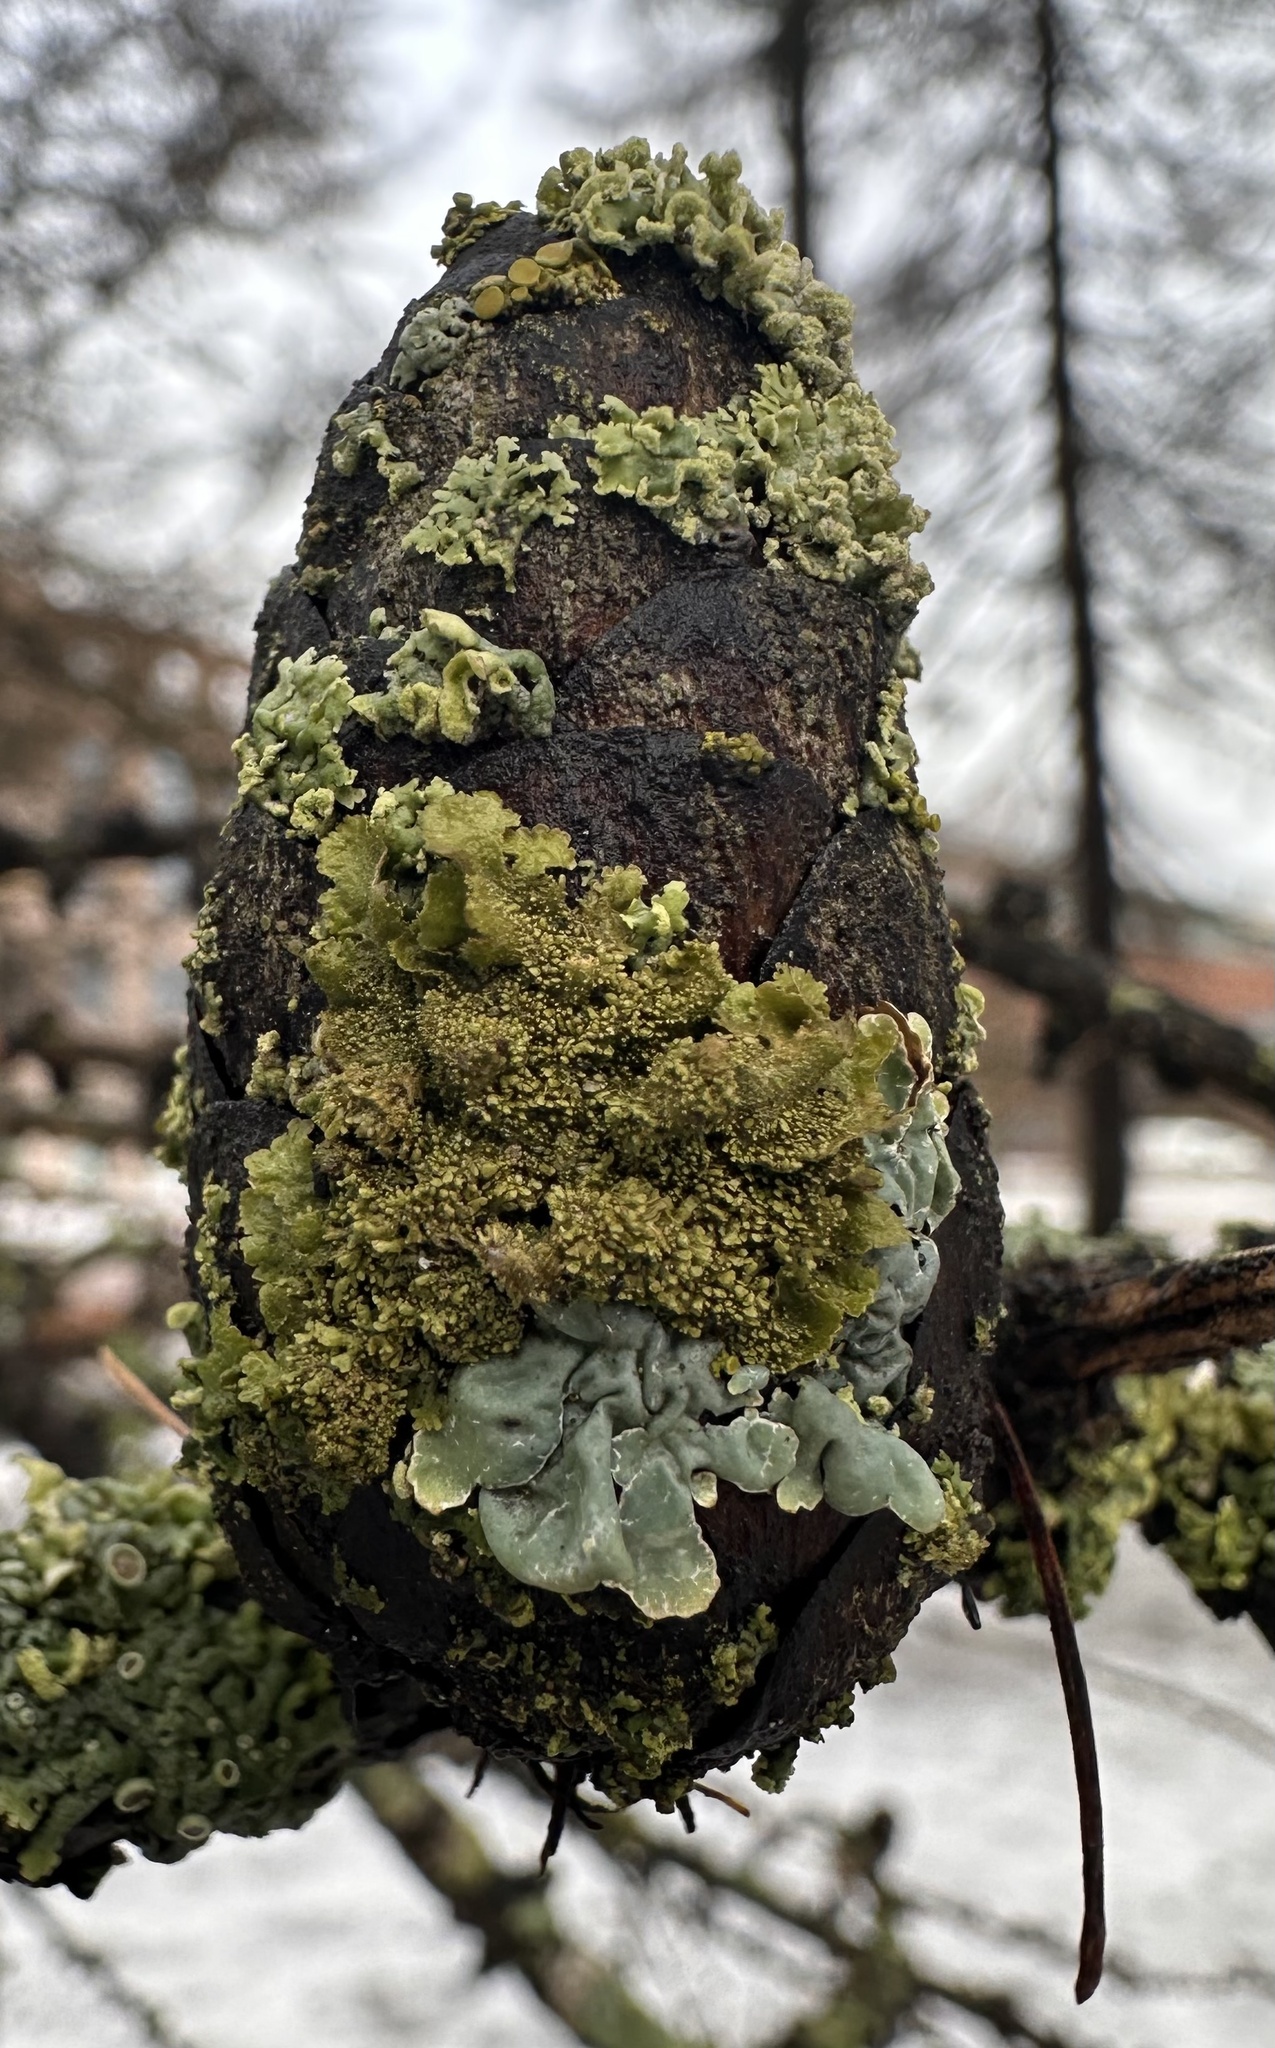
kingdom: Fungi
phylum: Ascomycota
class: Lecanoromycetes
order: Lecanorales
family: Parmeliaceae
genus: Melanohalea
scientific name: Melanohalea exasperatula
